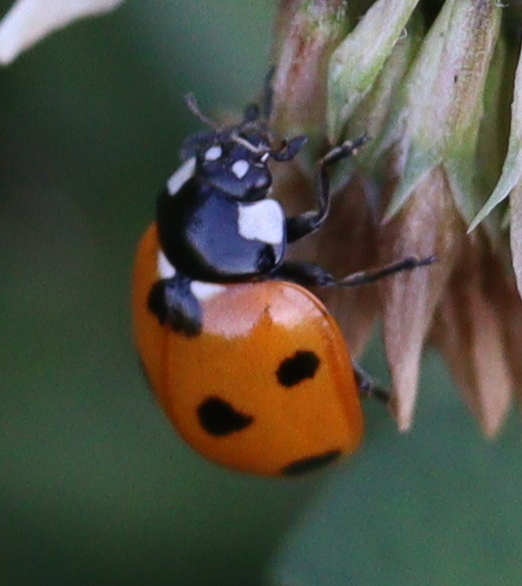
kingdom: Animalia
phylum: Arthropoda
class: Insecta
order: Coleoptera
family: Coccinellidae
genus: Coccinella
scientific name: Coccinella septempunctata
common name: Sevenspotted lady beetle
